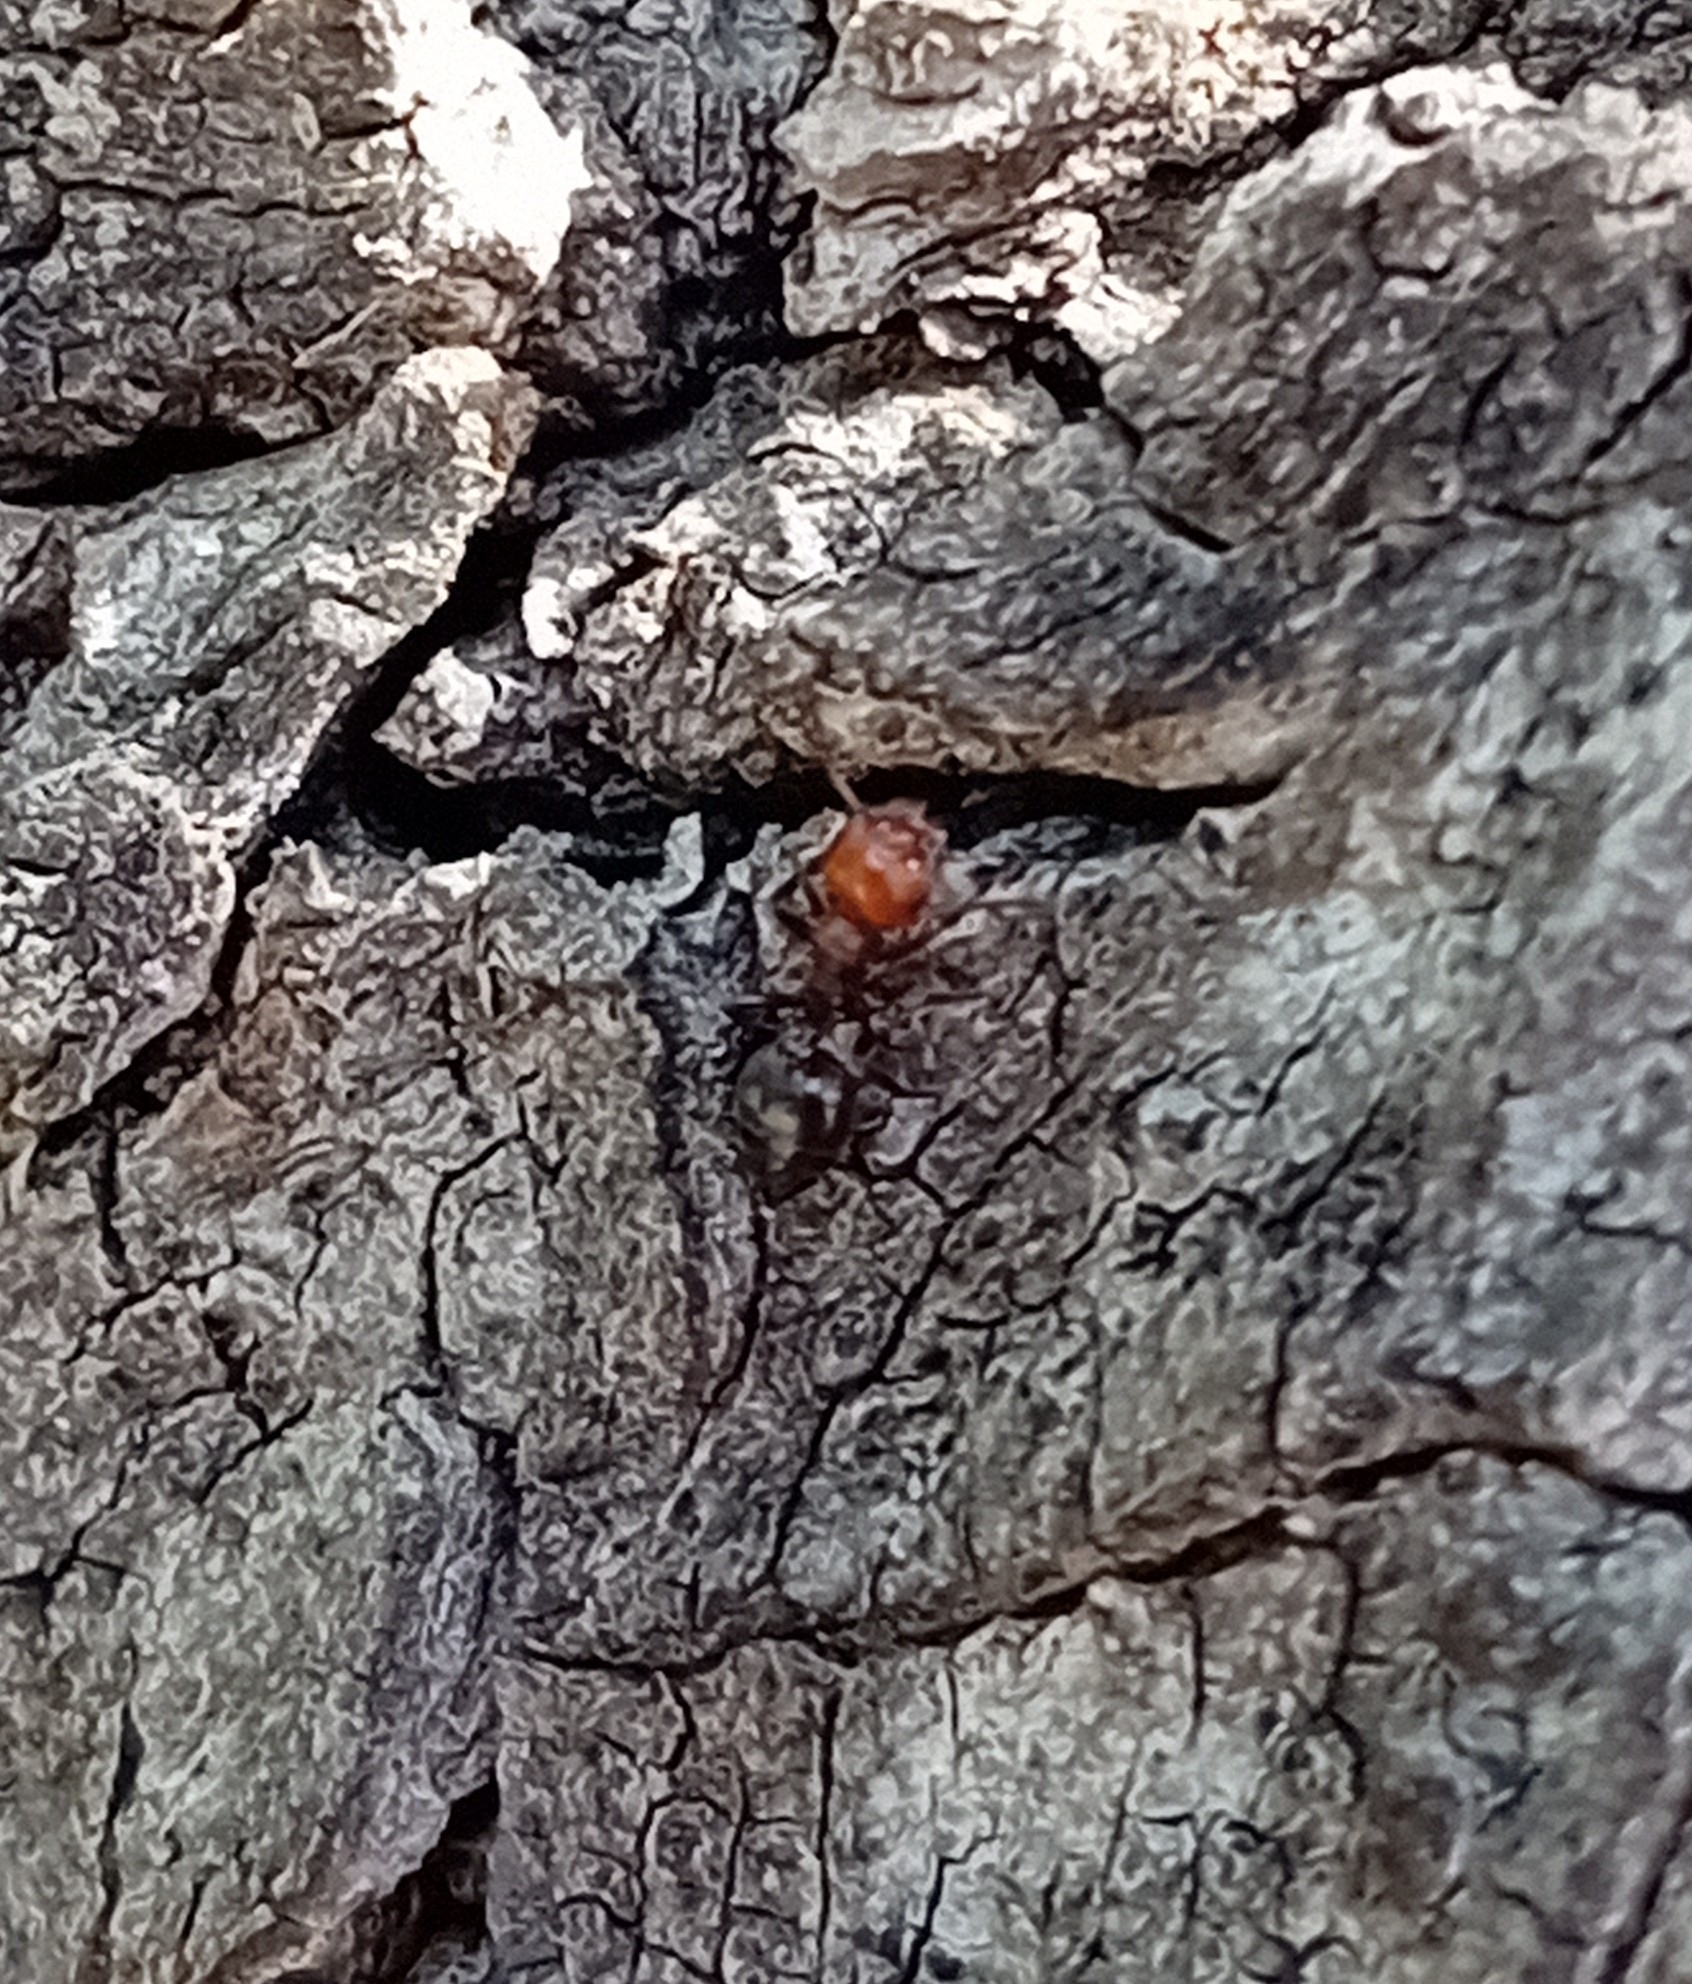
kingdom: Animalia
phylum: Arthropoda
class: Insecta
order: Hymenoptera
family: Formicidae
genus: Crematogaster
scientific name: Crematogaster scutellaris
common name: Fourmi du liège
